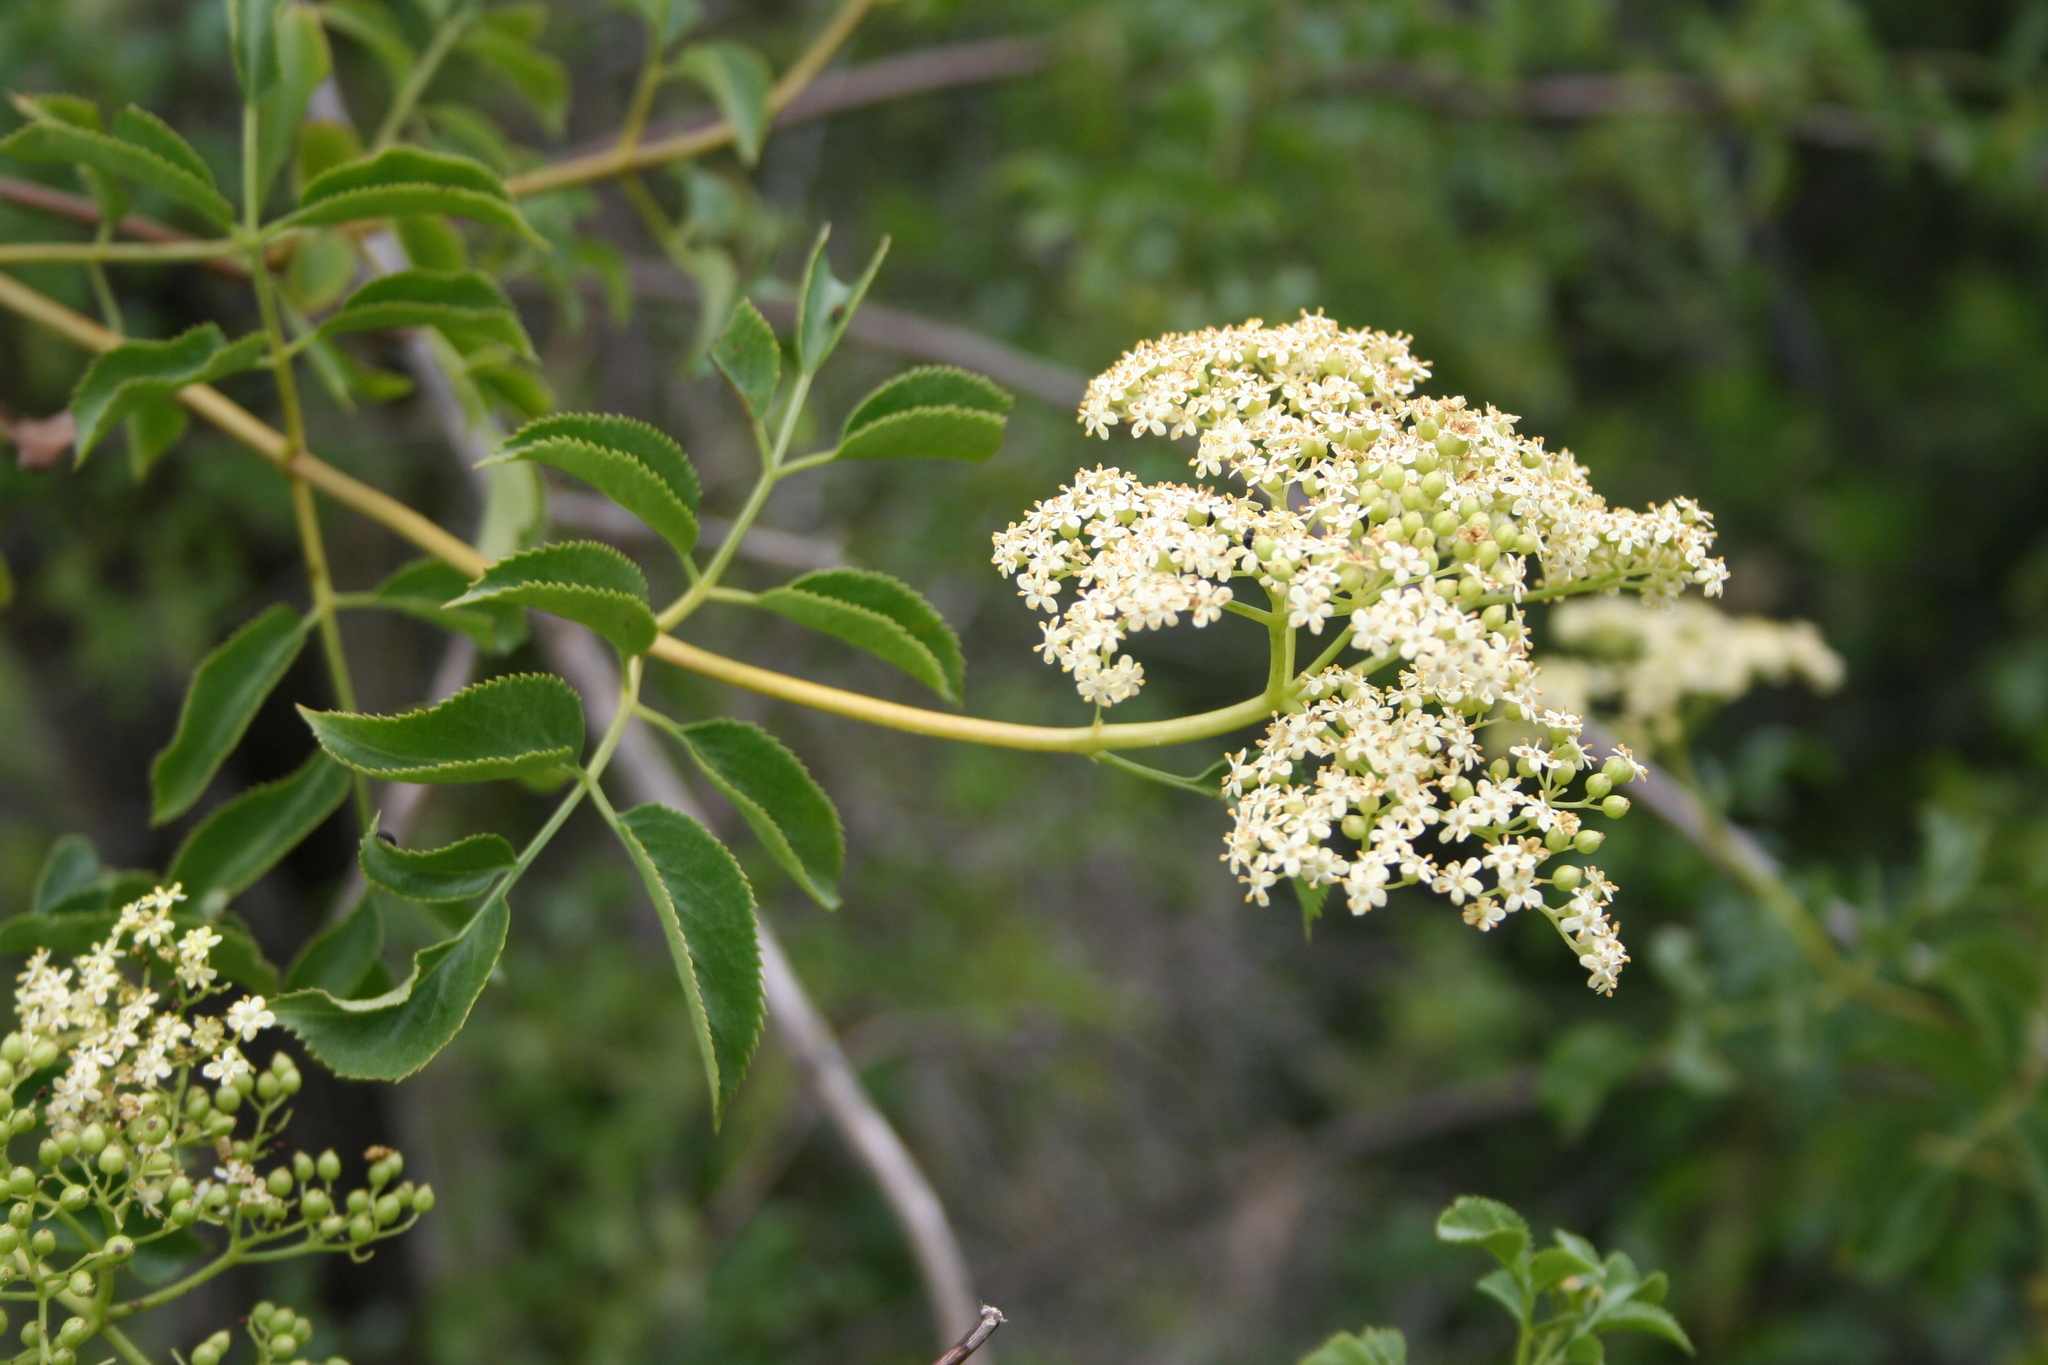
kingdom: Plantae
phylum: Tracheophyta
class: Magnoliopsida
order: Dipsacales
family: Viburnaceae
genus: Sambucus
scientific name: Sambucus cerulea
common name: Blue elder
